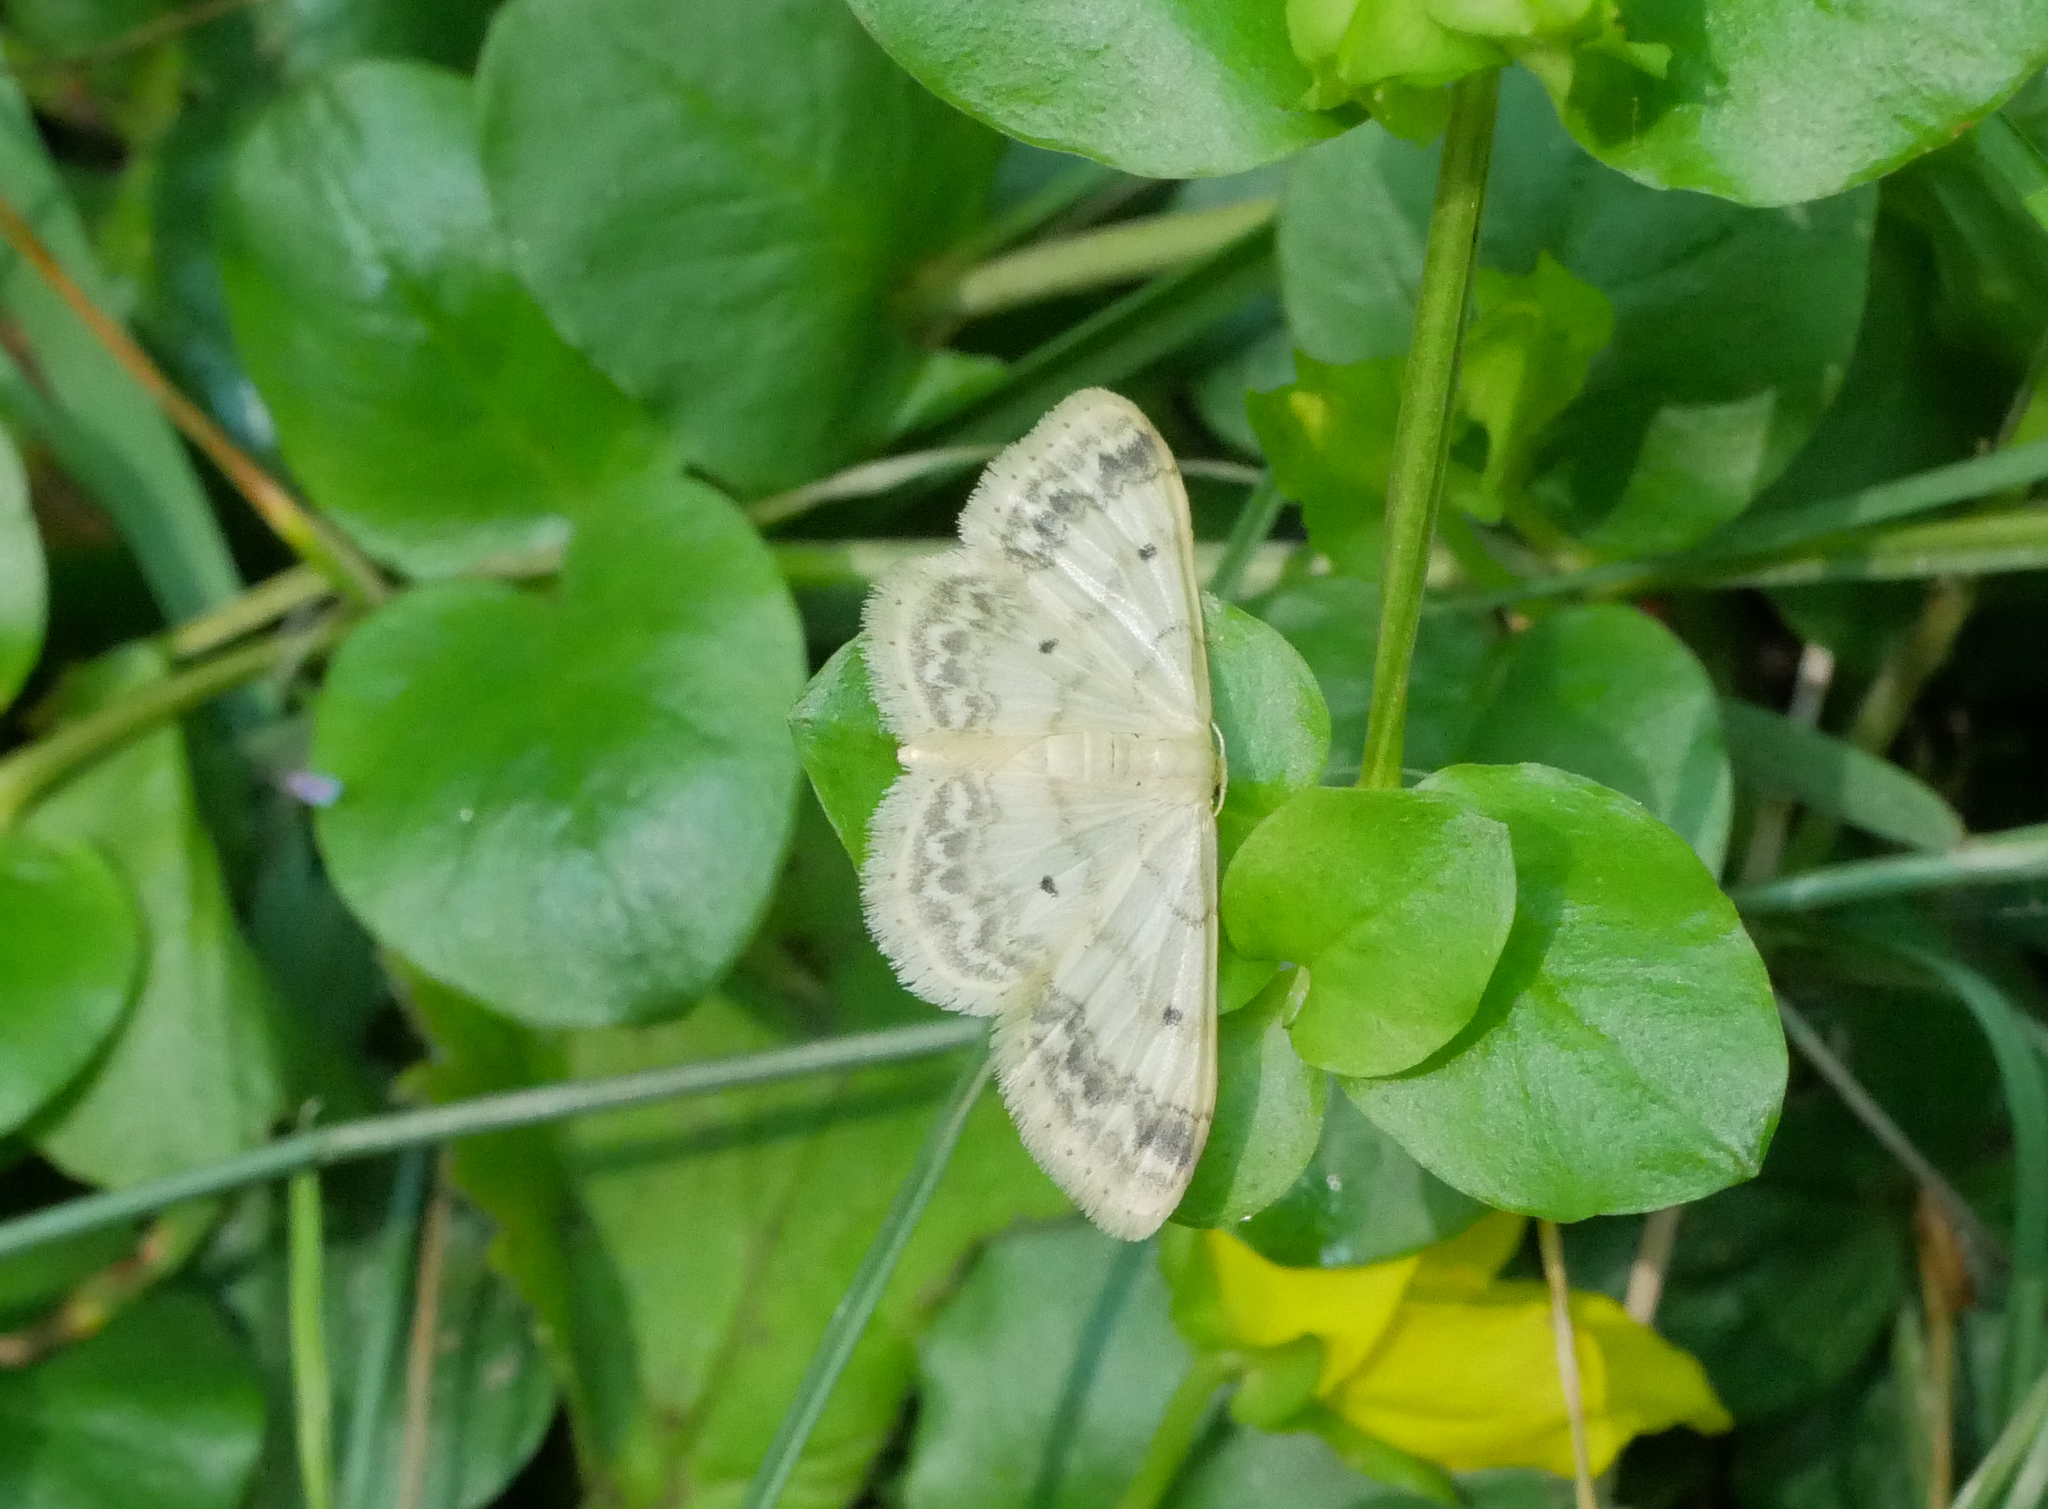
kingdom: Animalia
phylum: Arthropoda
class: Insecta
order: Lepidoptera
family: Geometridae
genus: Idaea
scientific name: Idaea biselata
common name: Small fan-footed wave
